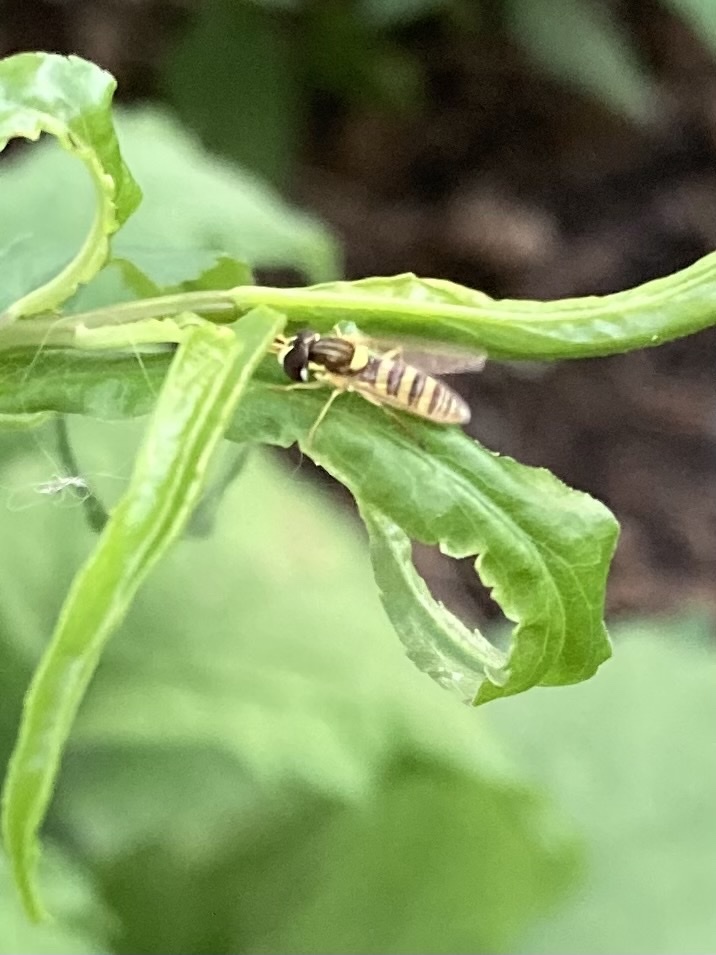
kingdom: Animalia
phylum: Arthropoda
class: Insecta
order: Diptera
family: Syrphidae
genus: Sphaerophoria
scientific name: Sphaerophoria contigua
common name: Tufted globetail
